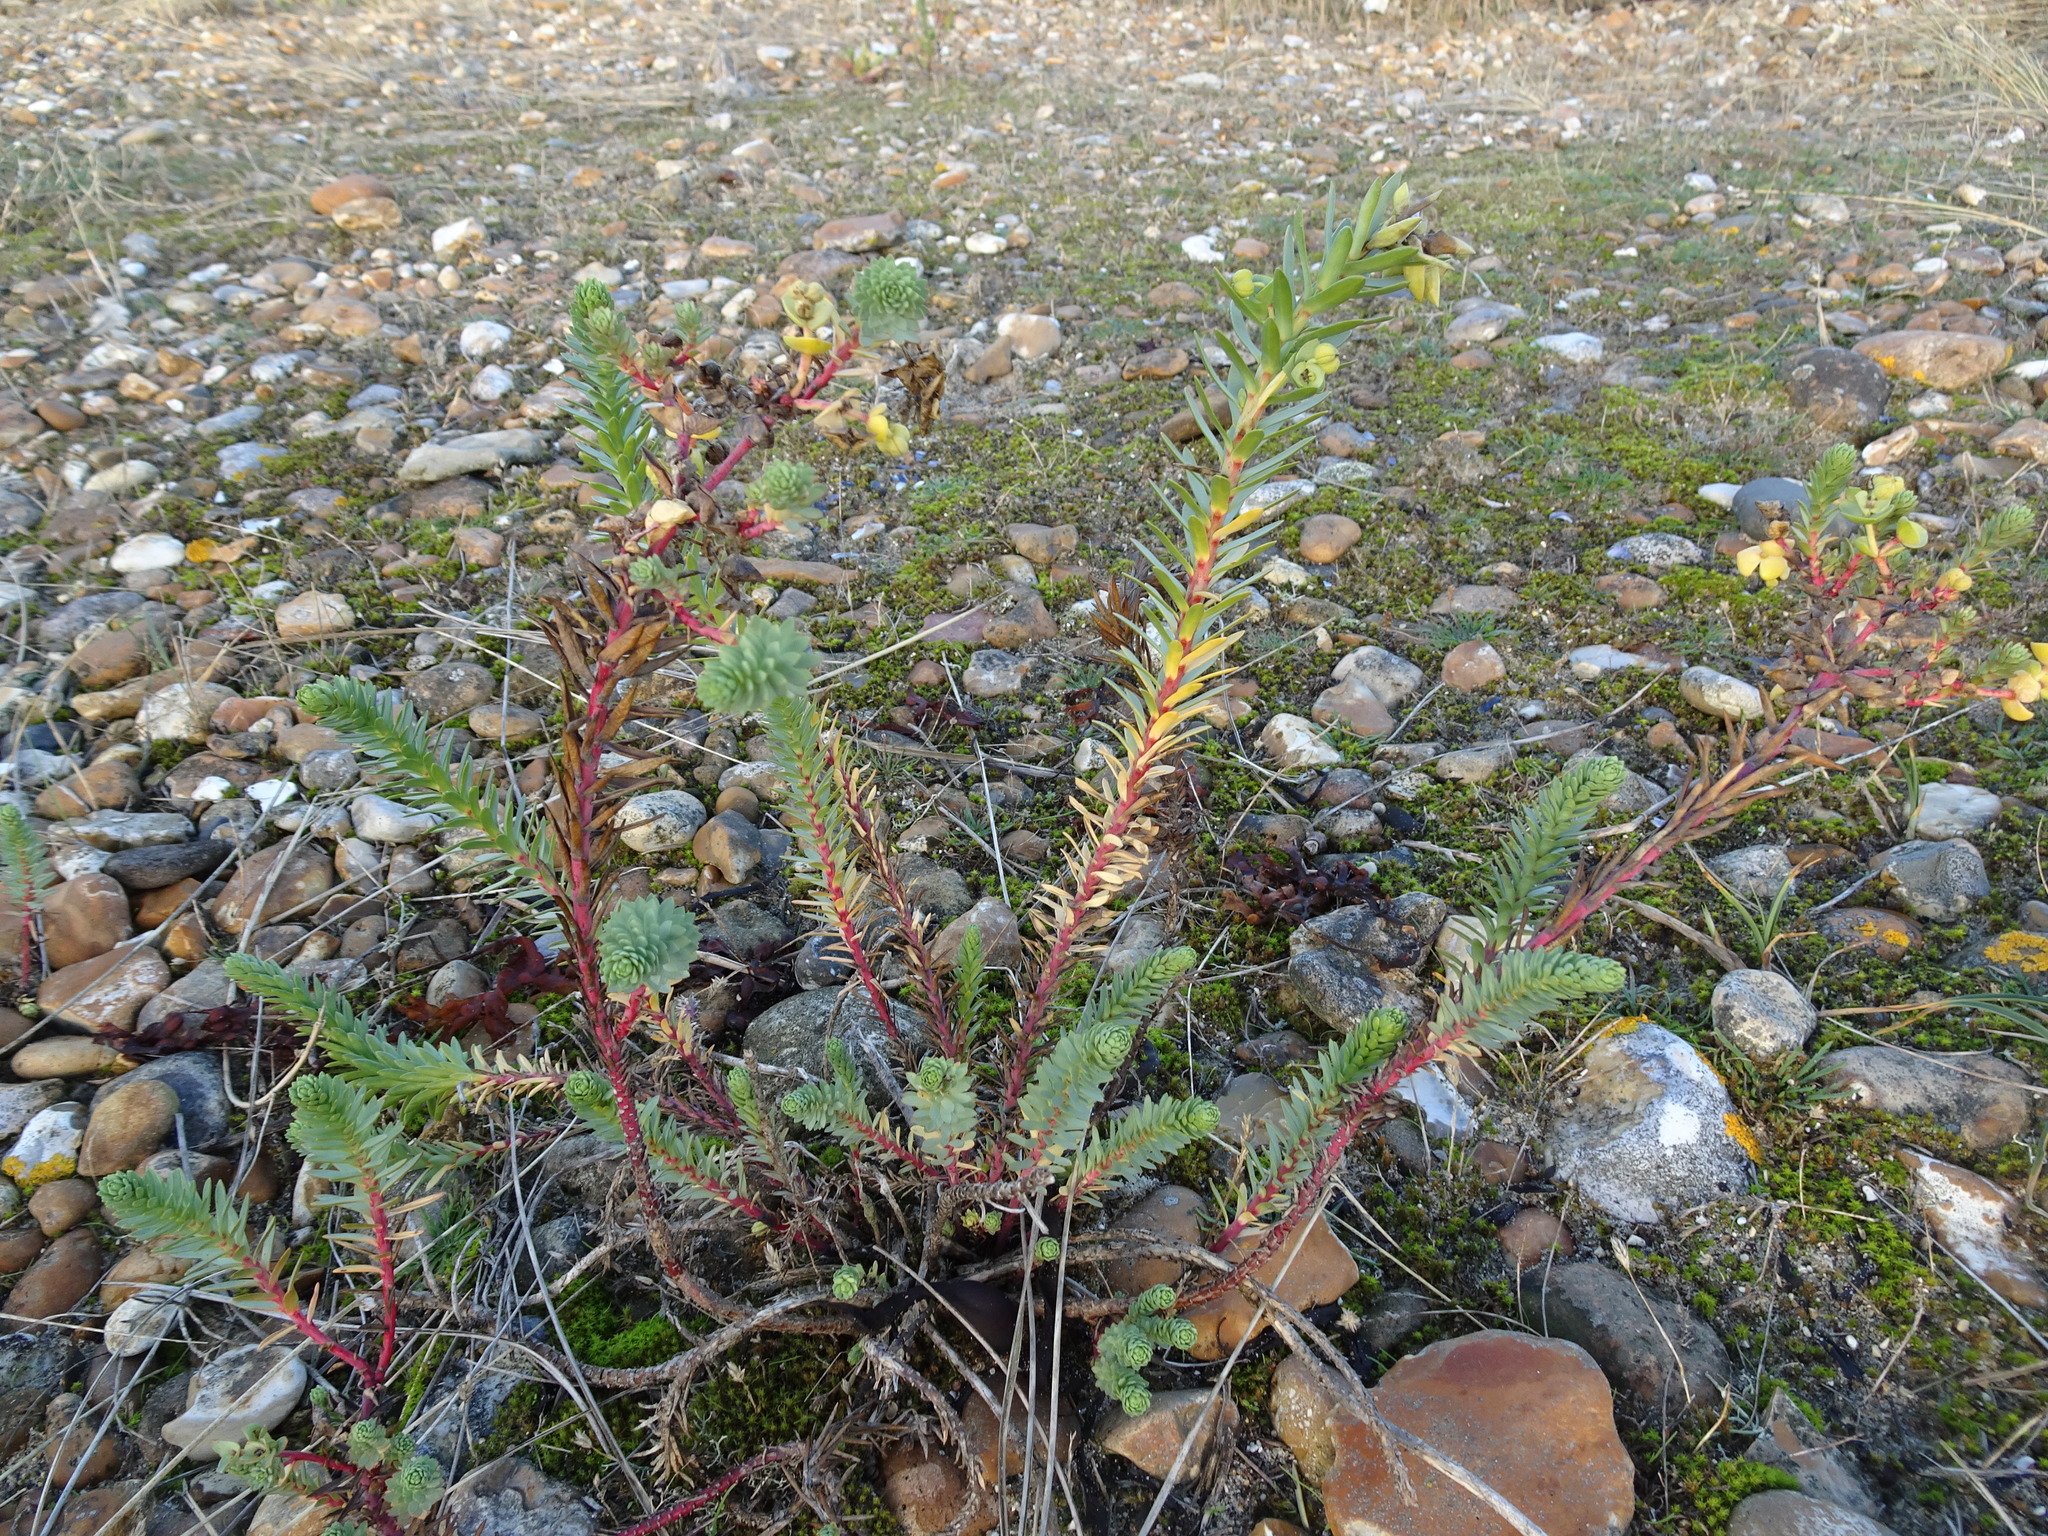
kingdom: Plantae
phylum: Tracheophyta
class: Magnoliopsida
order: Malpighiales
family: Euphorbiaceae
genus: Euphorbia
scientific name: Euphorbia paralias
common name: Sea spurge
